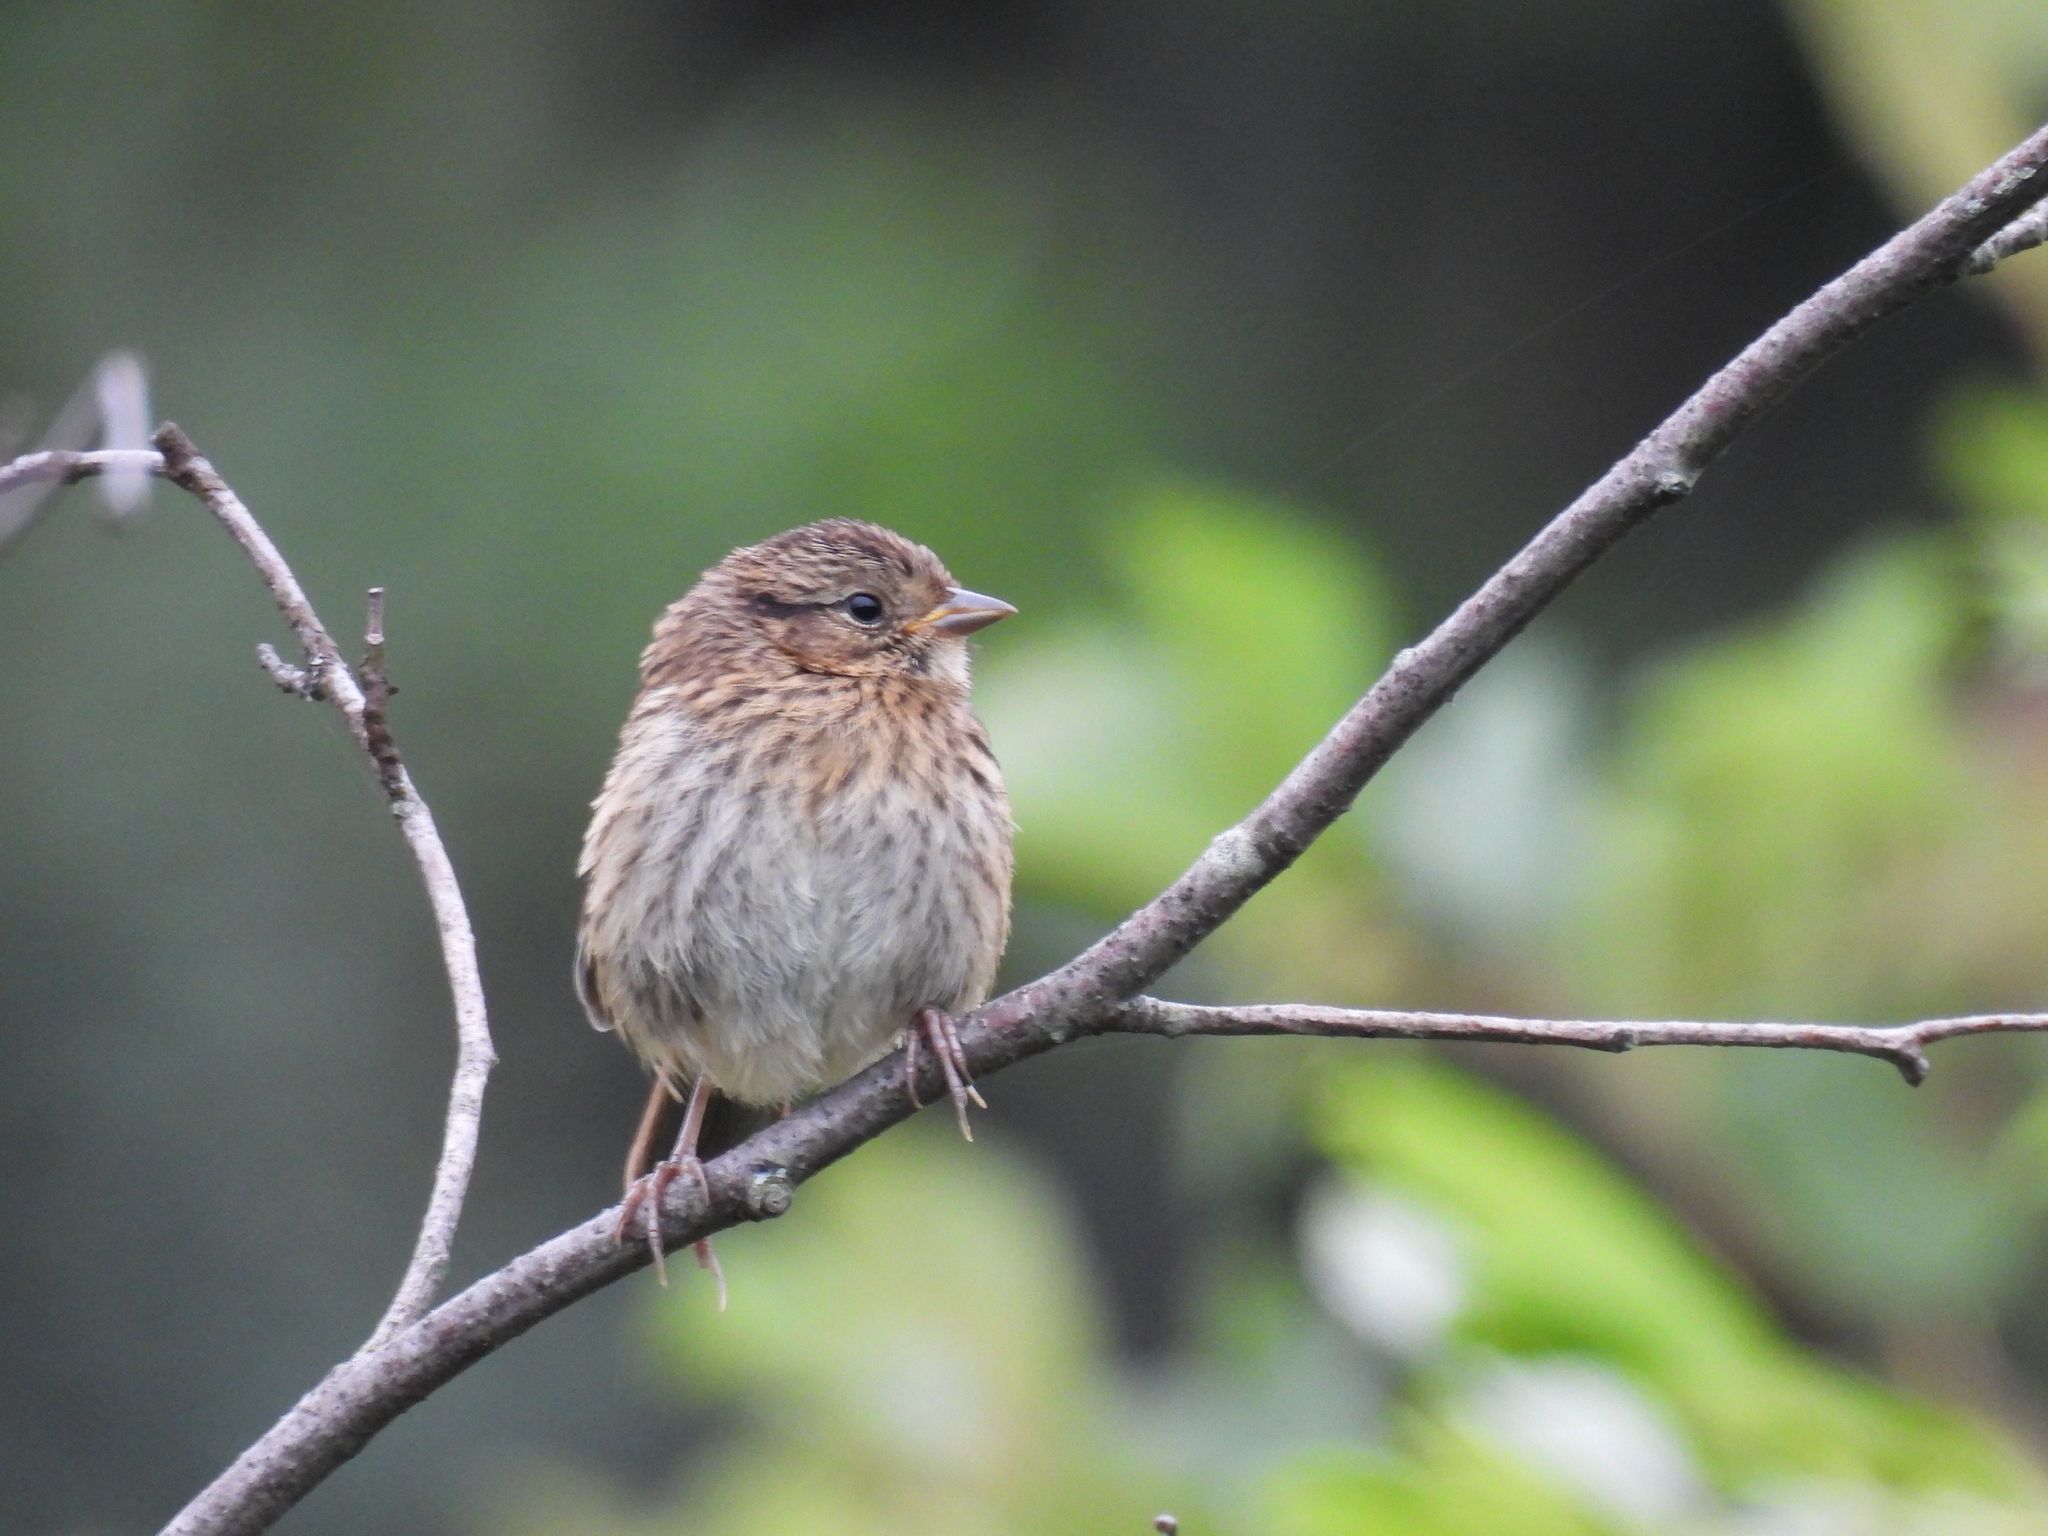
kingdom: Animalia
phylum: Chordata
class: Aves
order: Passeriformes
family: Passerellidae
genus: Zonotrichia
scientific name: Zonotrichia albicollis
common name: White-throated sparrow
